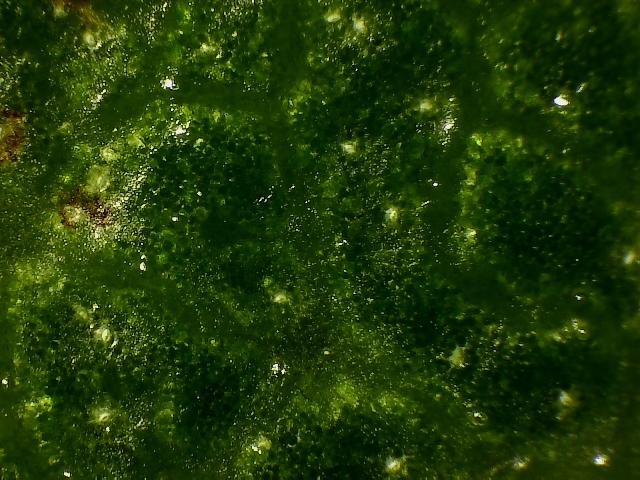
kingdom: Plantae
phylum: Tracheophyta
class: Magnoliopsida
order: Ericales
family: Ericaceae
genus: Arctostaphylos
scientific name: Arctostaphylos crustacea
